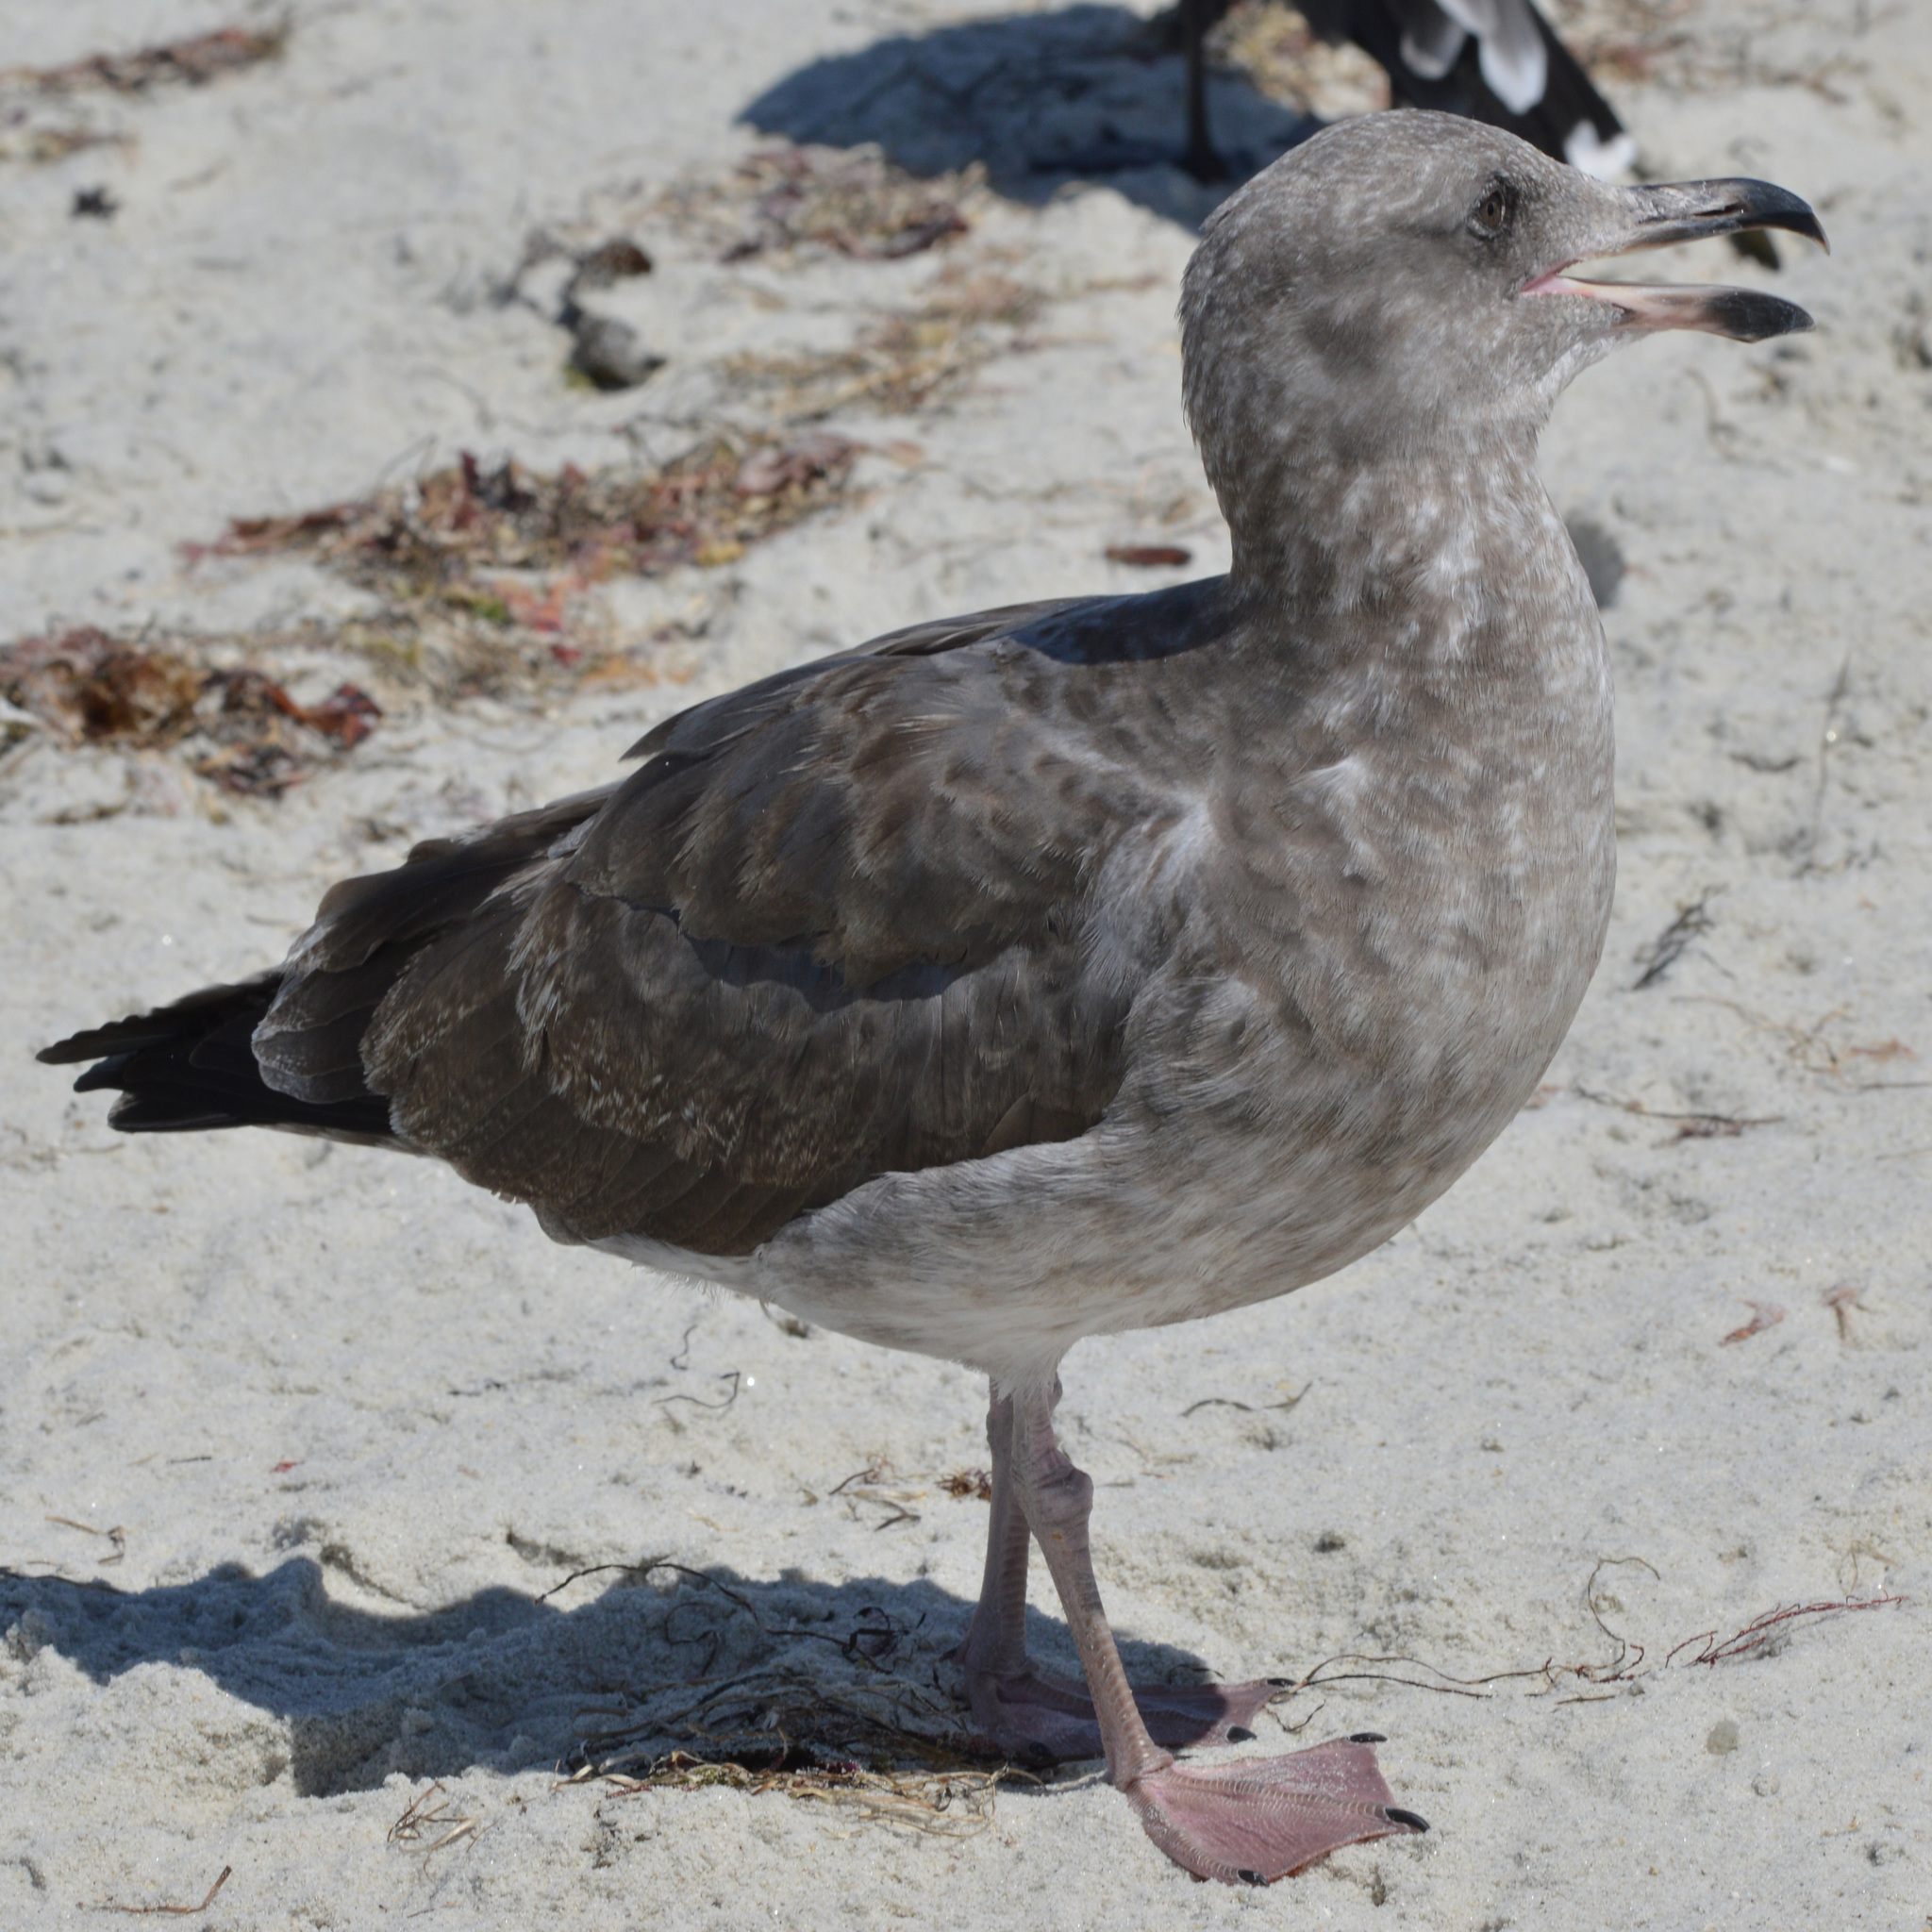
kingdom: Animalia
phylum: Chordata
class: Aves
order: Charadriiformes
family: Laridae
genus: Larus
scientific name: Larus occidentalis
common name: Western gull
